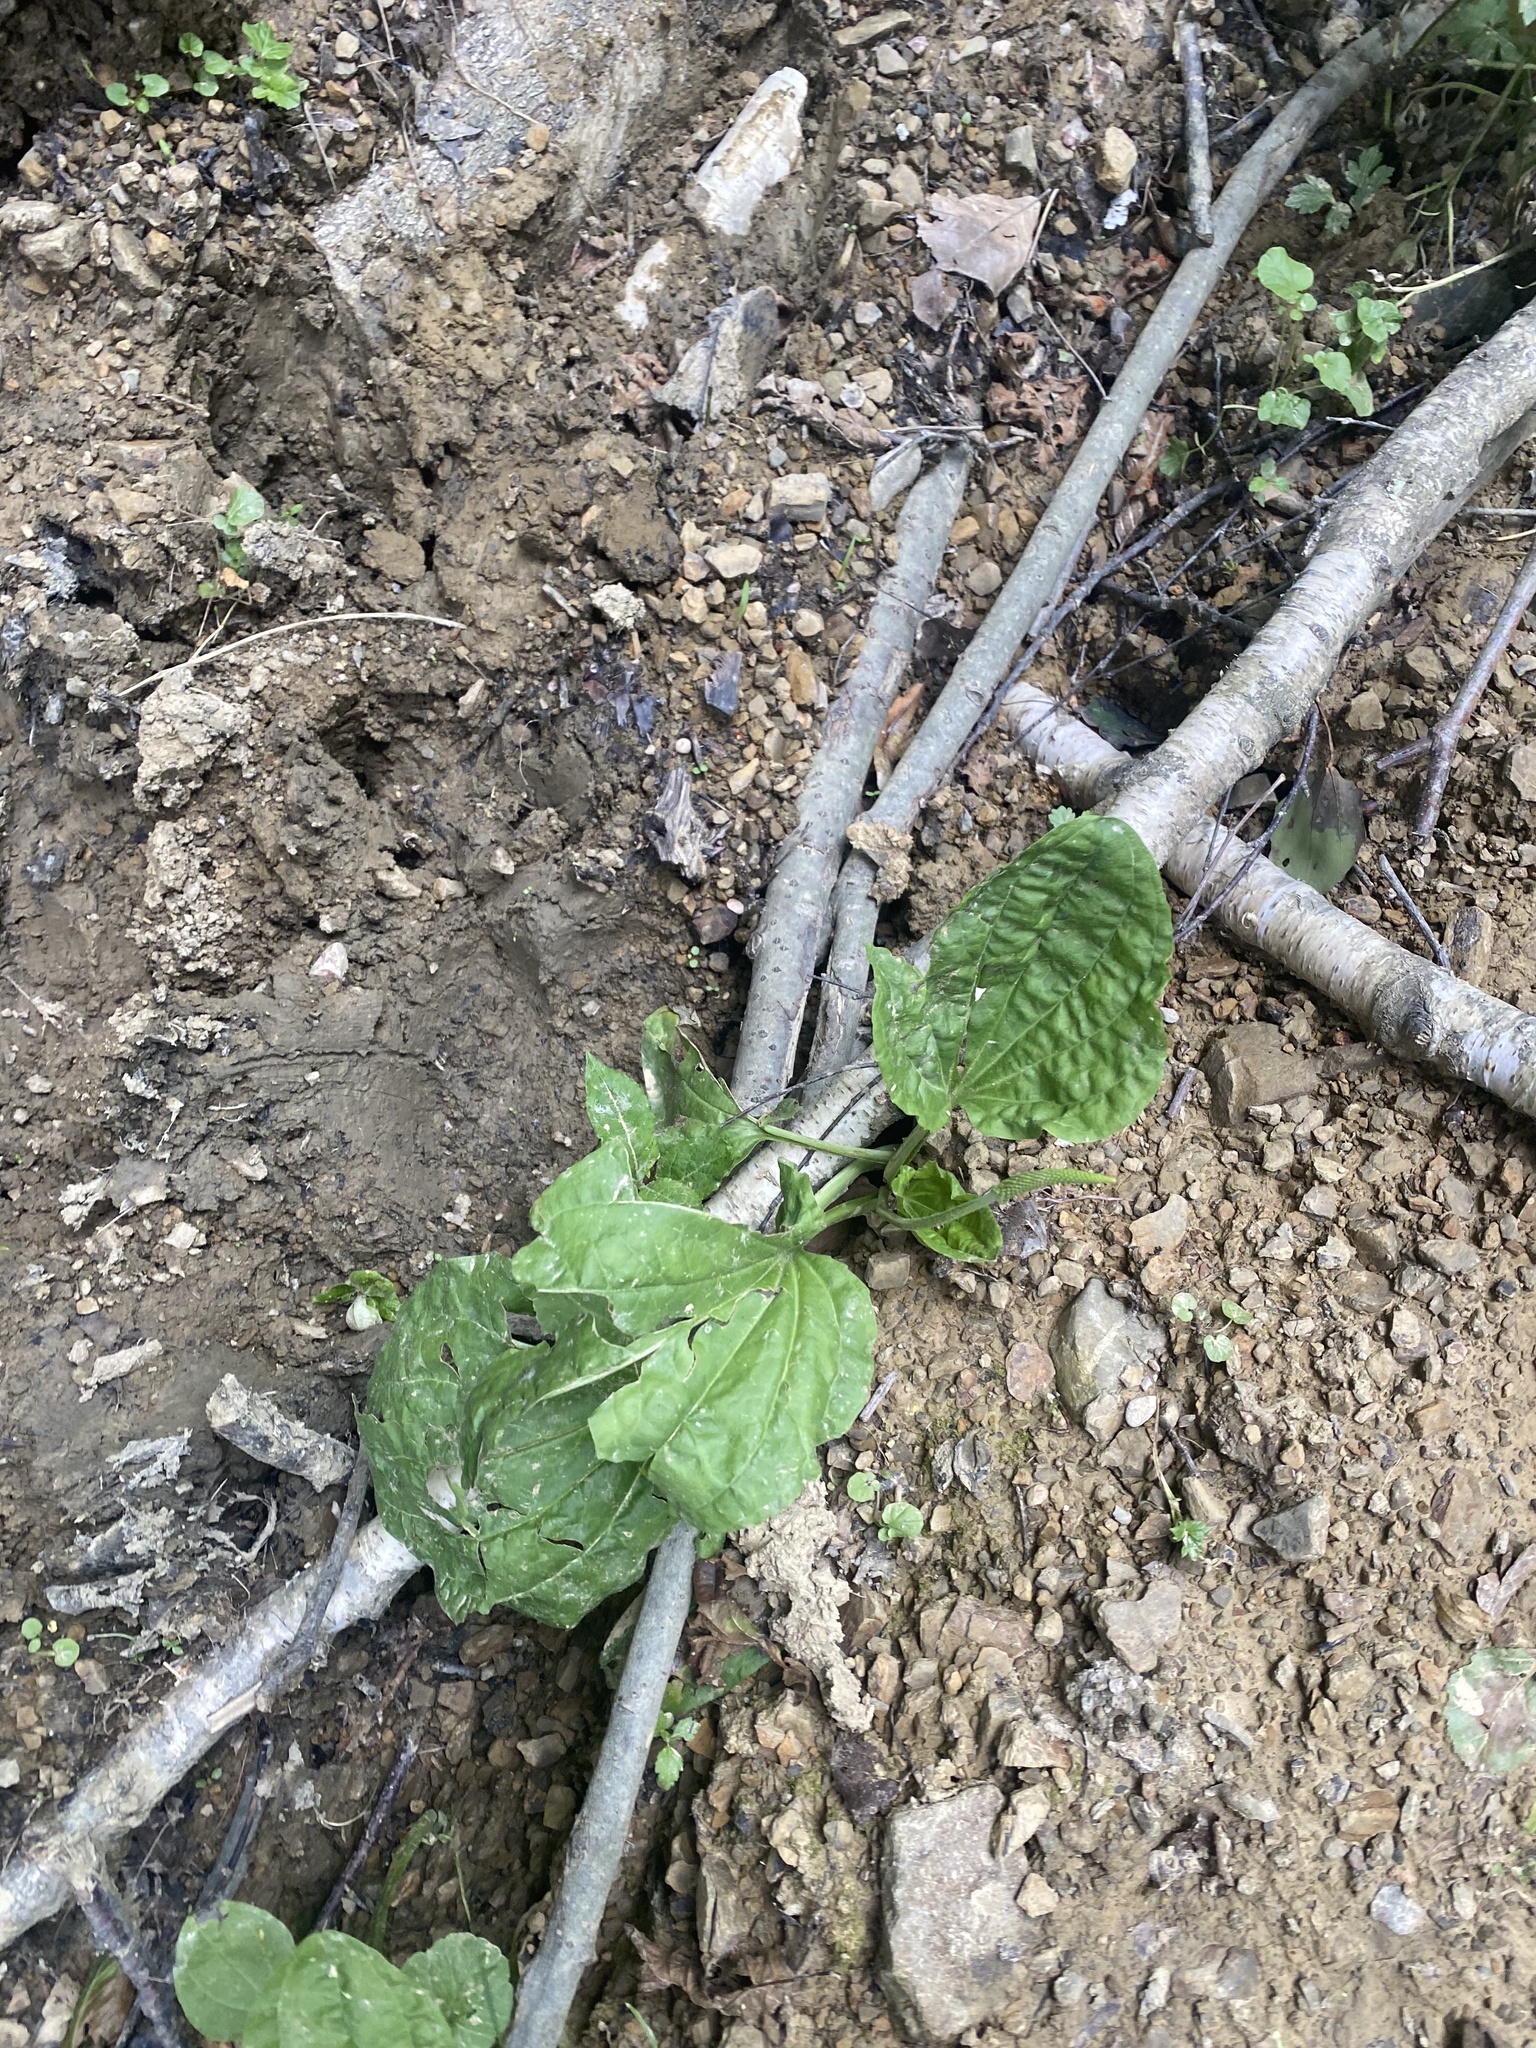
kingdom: Plantae
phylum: Tracheophyta
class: Magnoliopsida
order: Lamiales
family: Plantaginaceae
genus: Plantago
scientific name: Plantago major
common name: Common plantain
